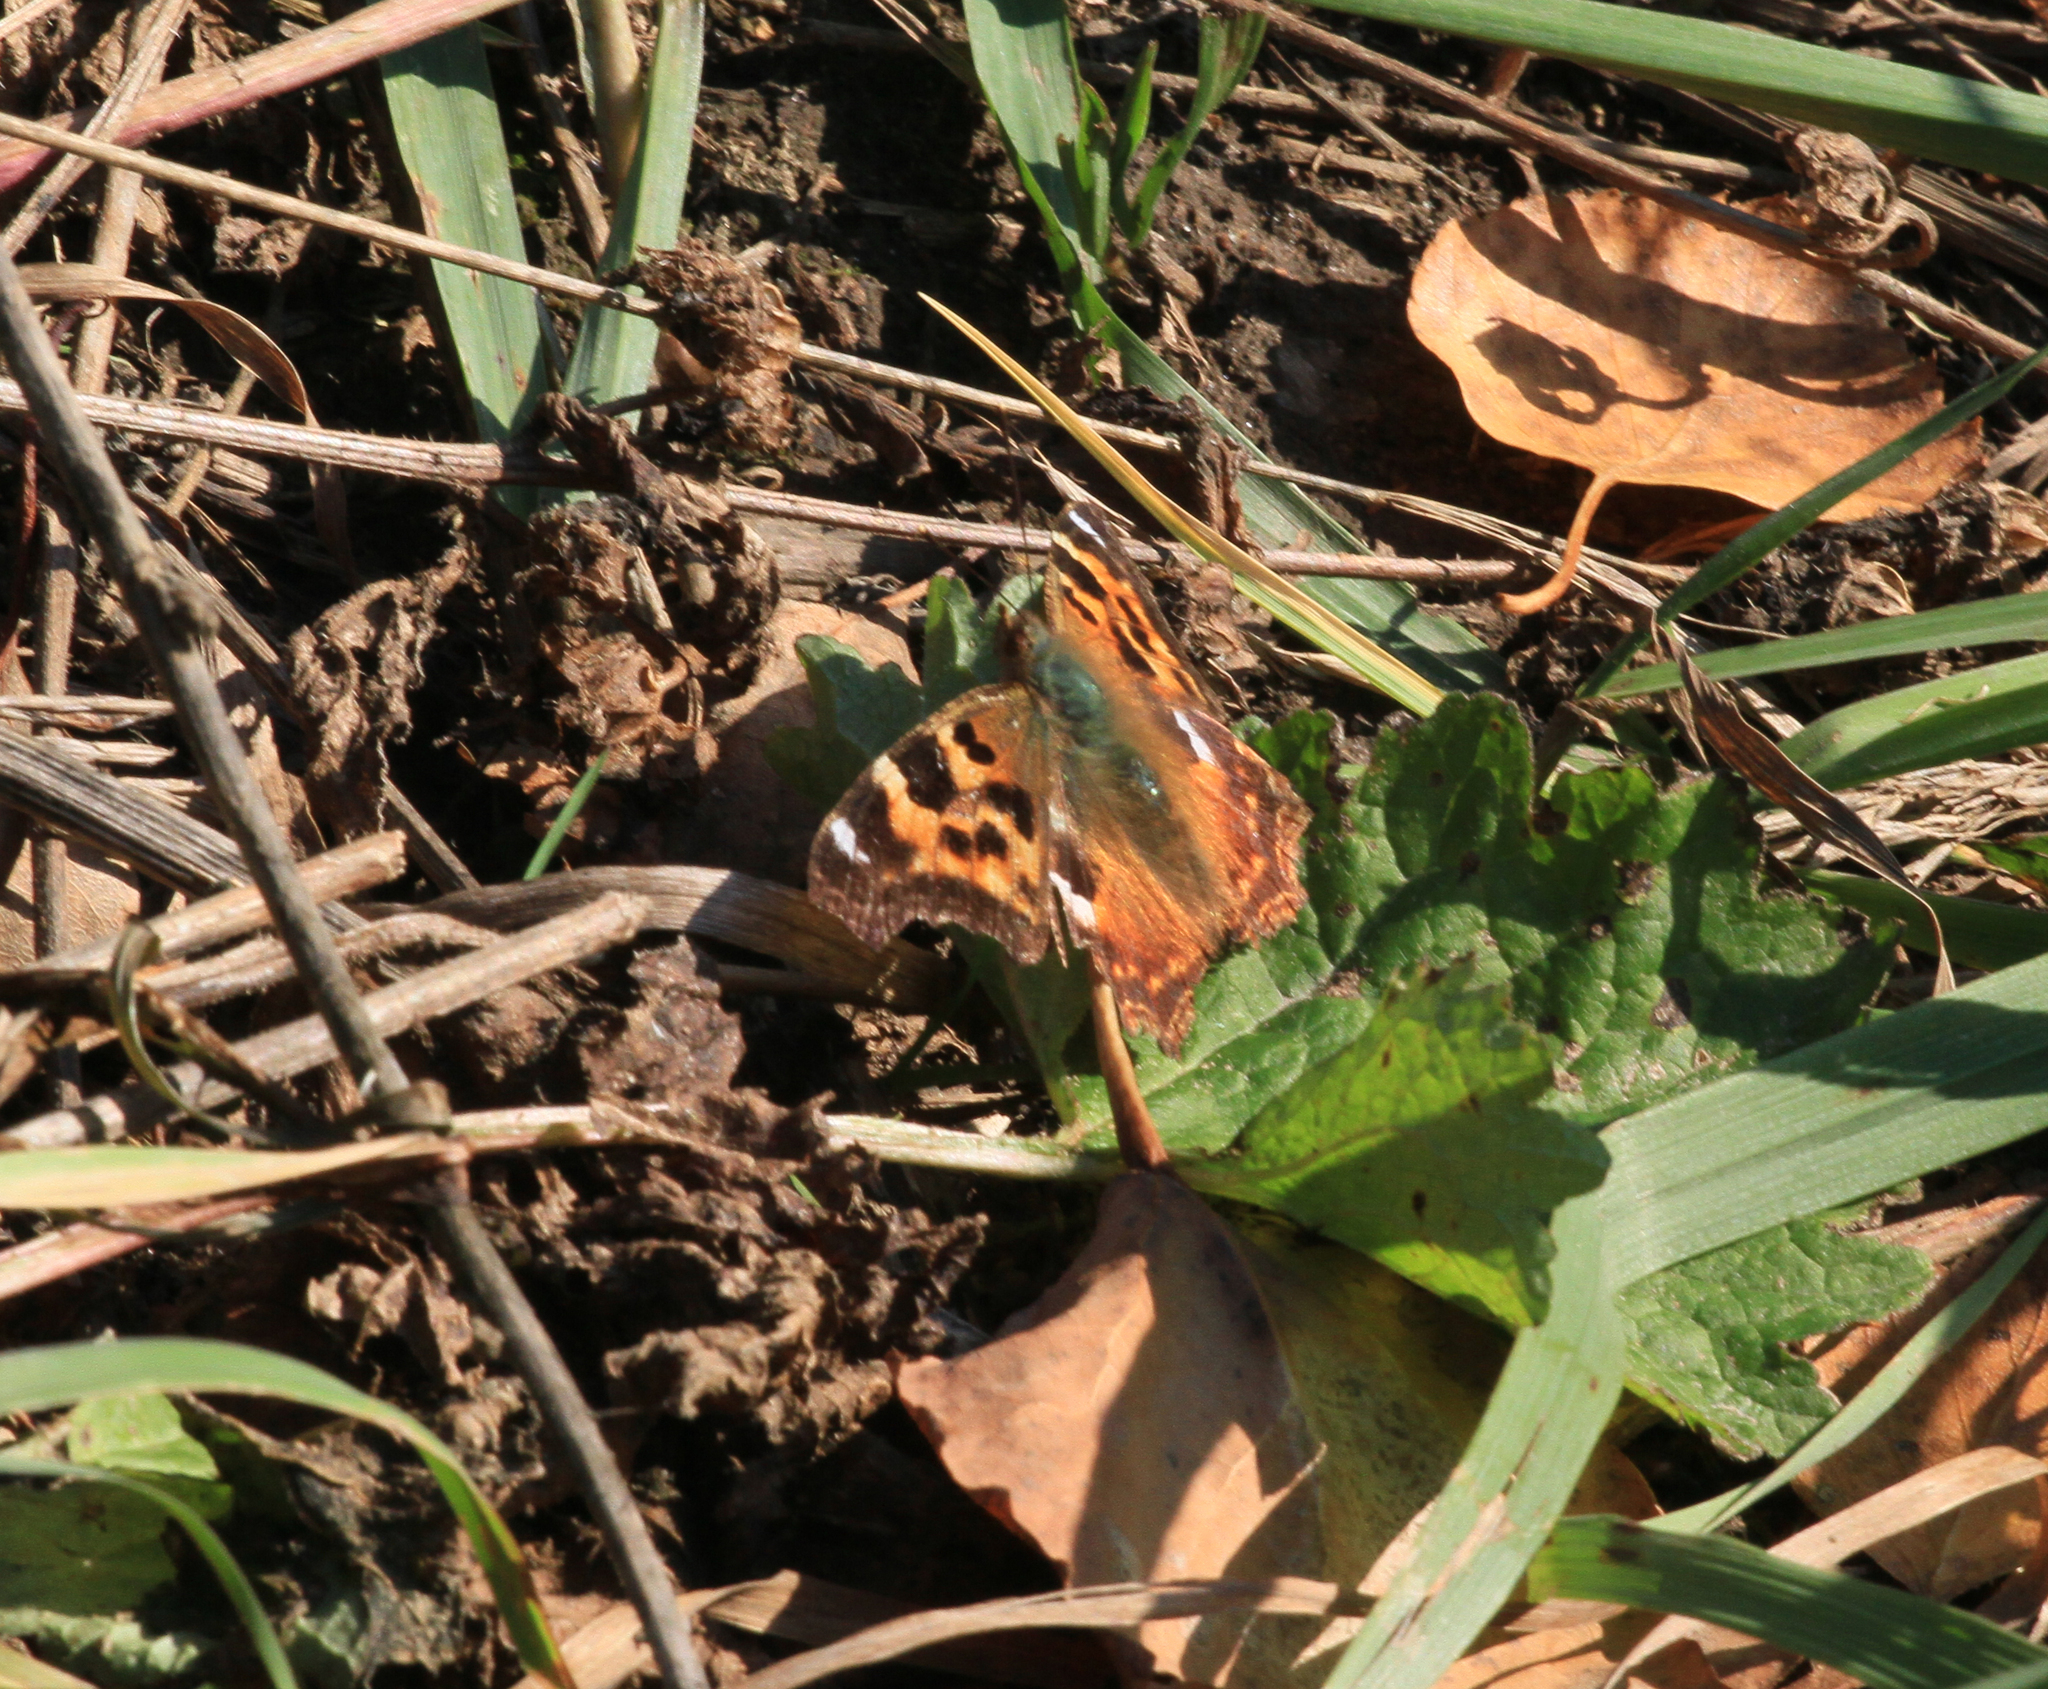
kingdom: Animalia
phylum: Arthropoda
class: Insecta
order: Lepidoptera
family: Nymphalidae
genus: Polygonia
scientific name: Polygonia vaualbum
